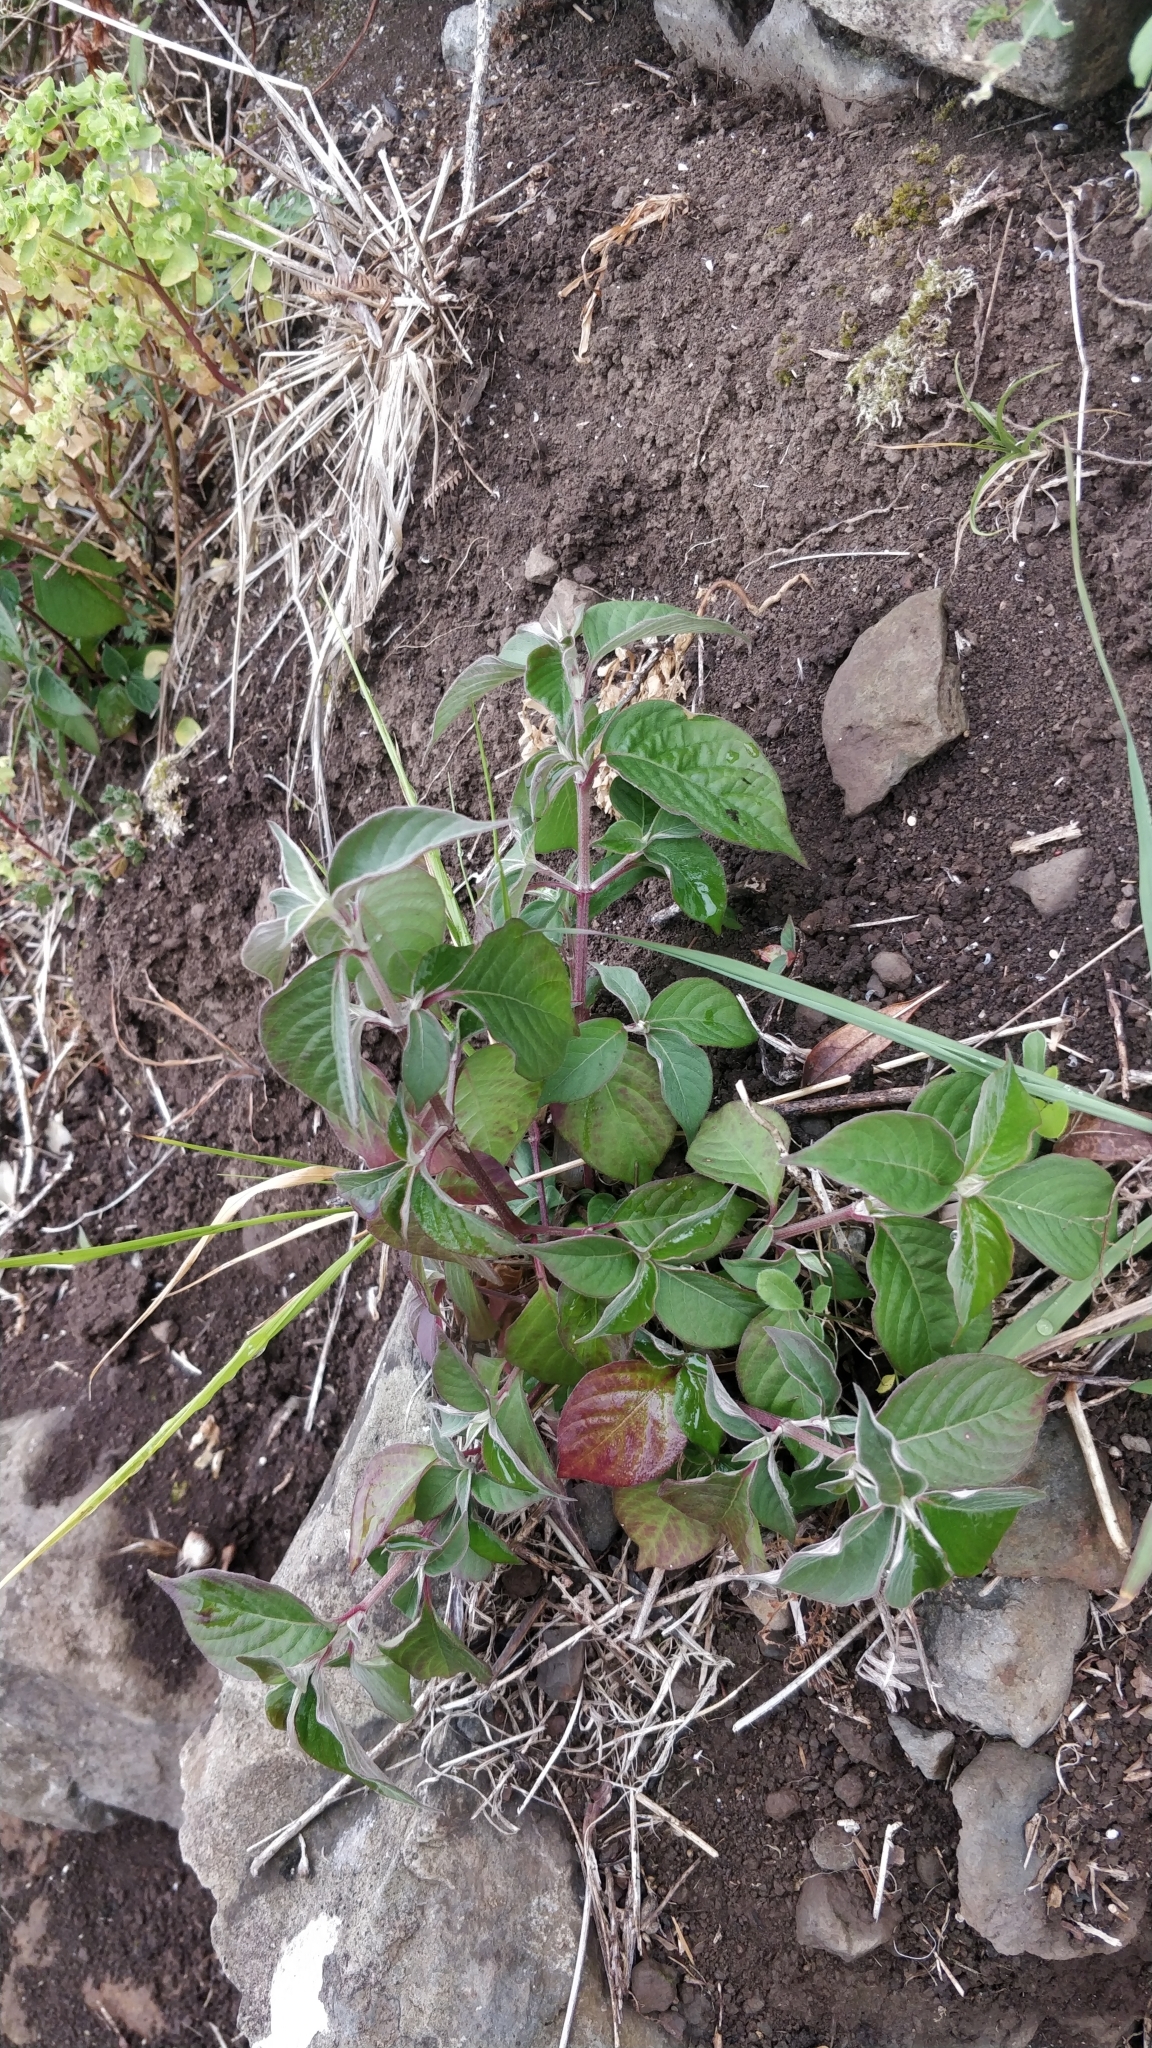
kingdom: Plantae
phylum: Tracheophyta
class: Magnoliopsida
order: Caryophyllales
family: Amaranthaceae
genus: Achyranthes
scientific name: Achyranthes aspera
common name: Devil's horsewhip
